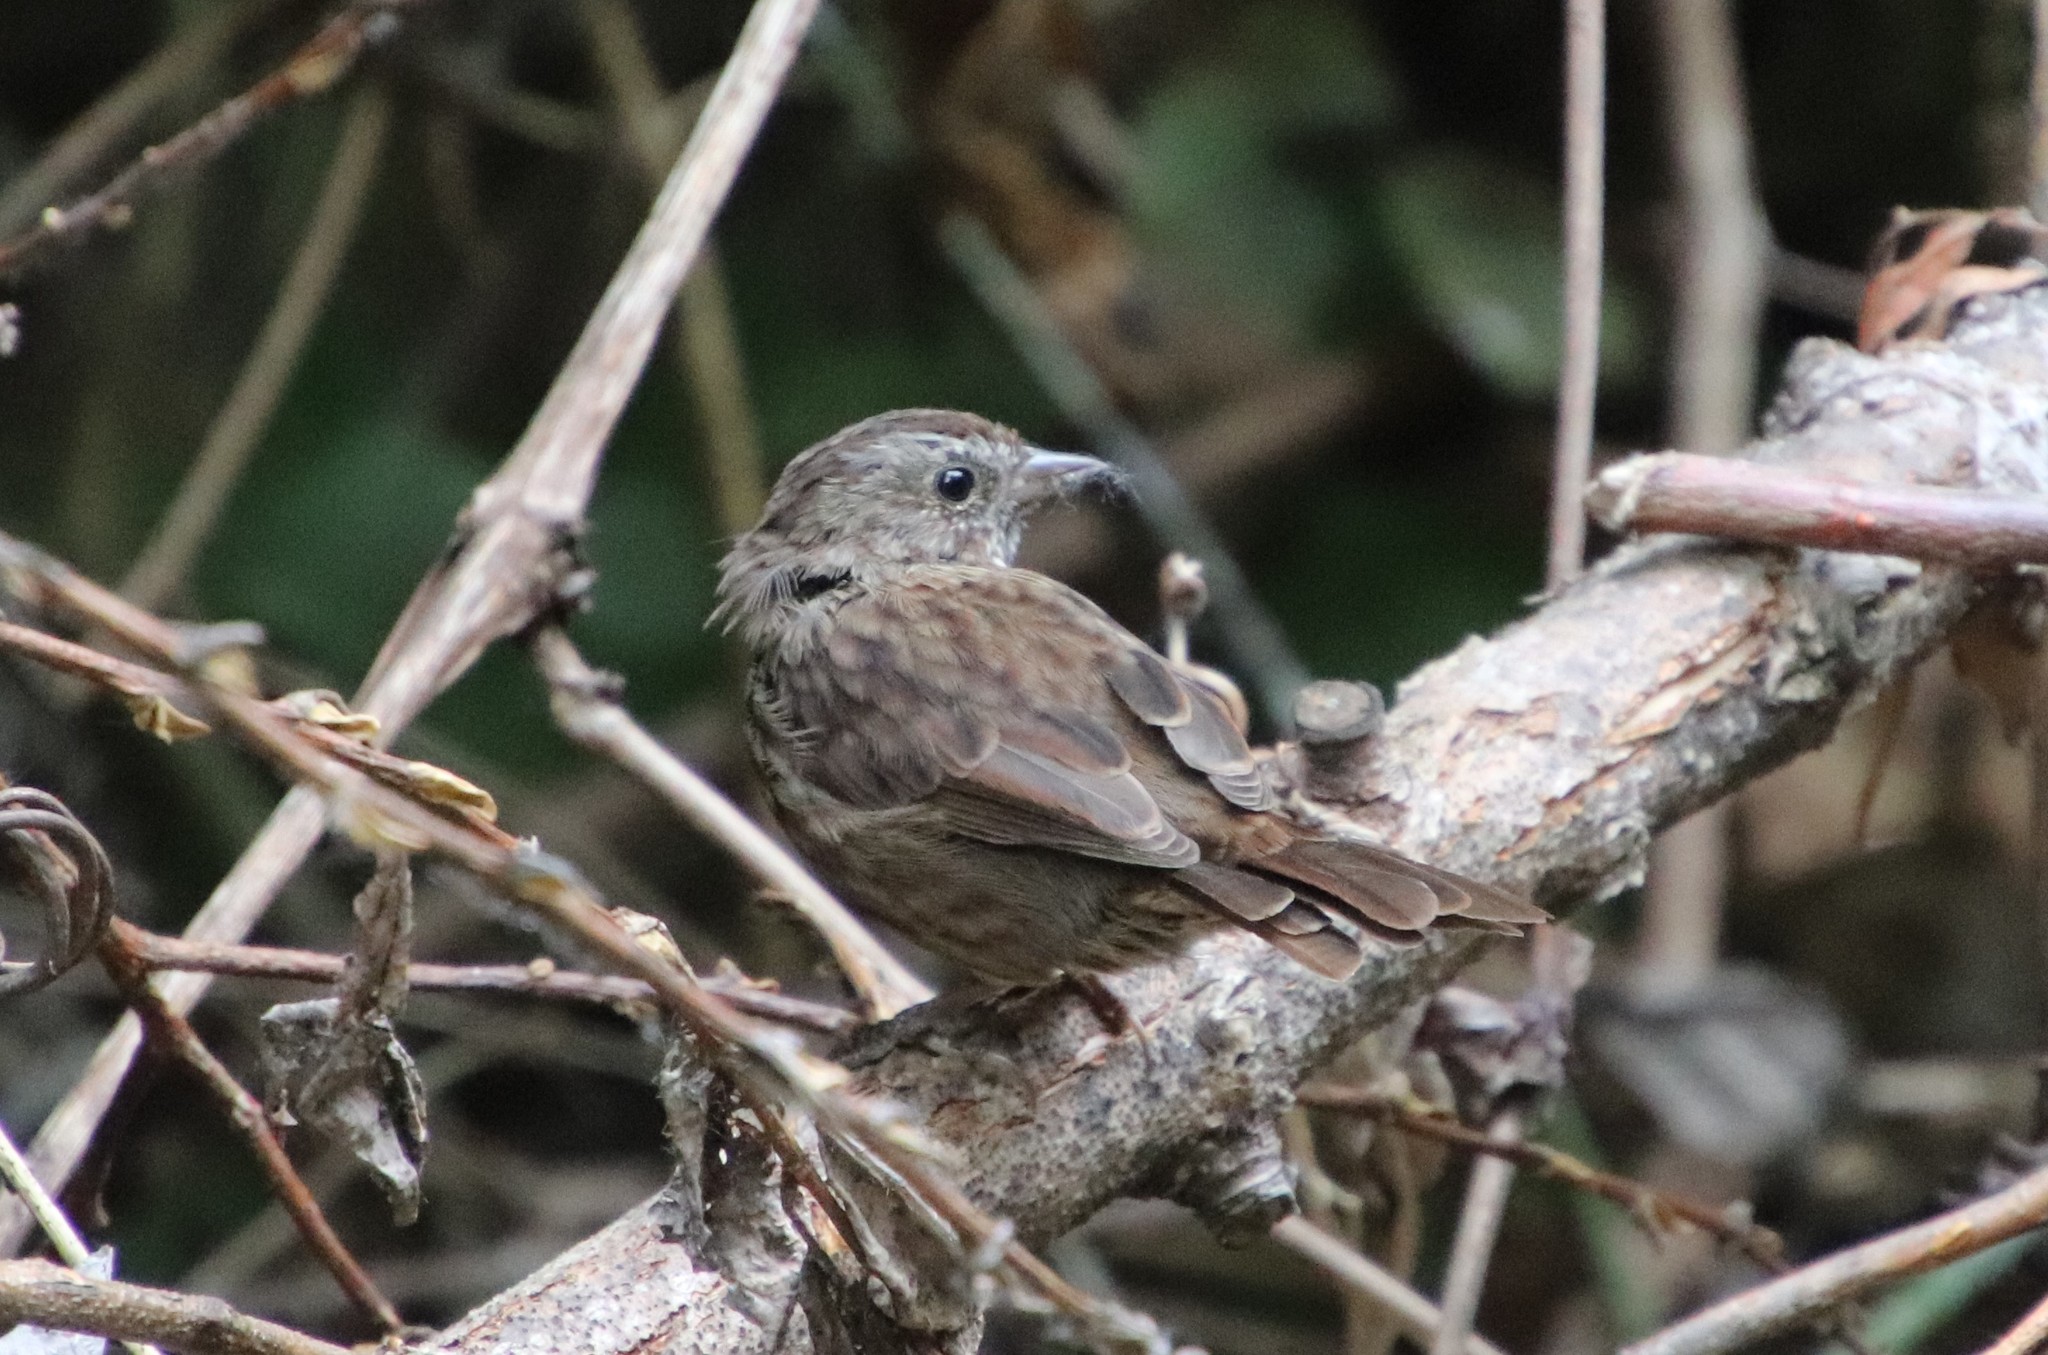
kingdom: Animalia
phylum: Chordata
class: Aves
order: Passeriformes
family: Passerellidae
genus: Melospiza
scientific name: Melospiza melodia
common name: Song sparrow
